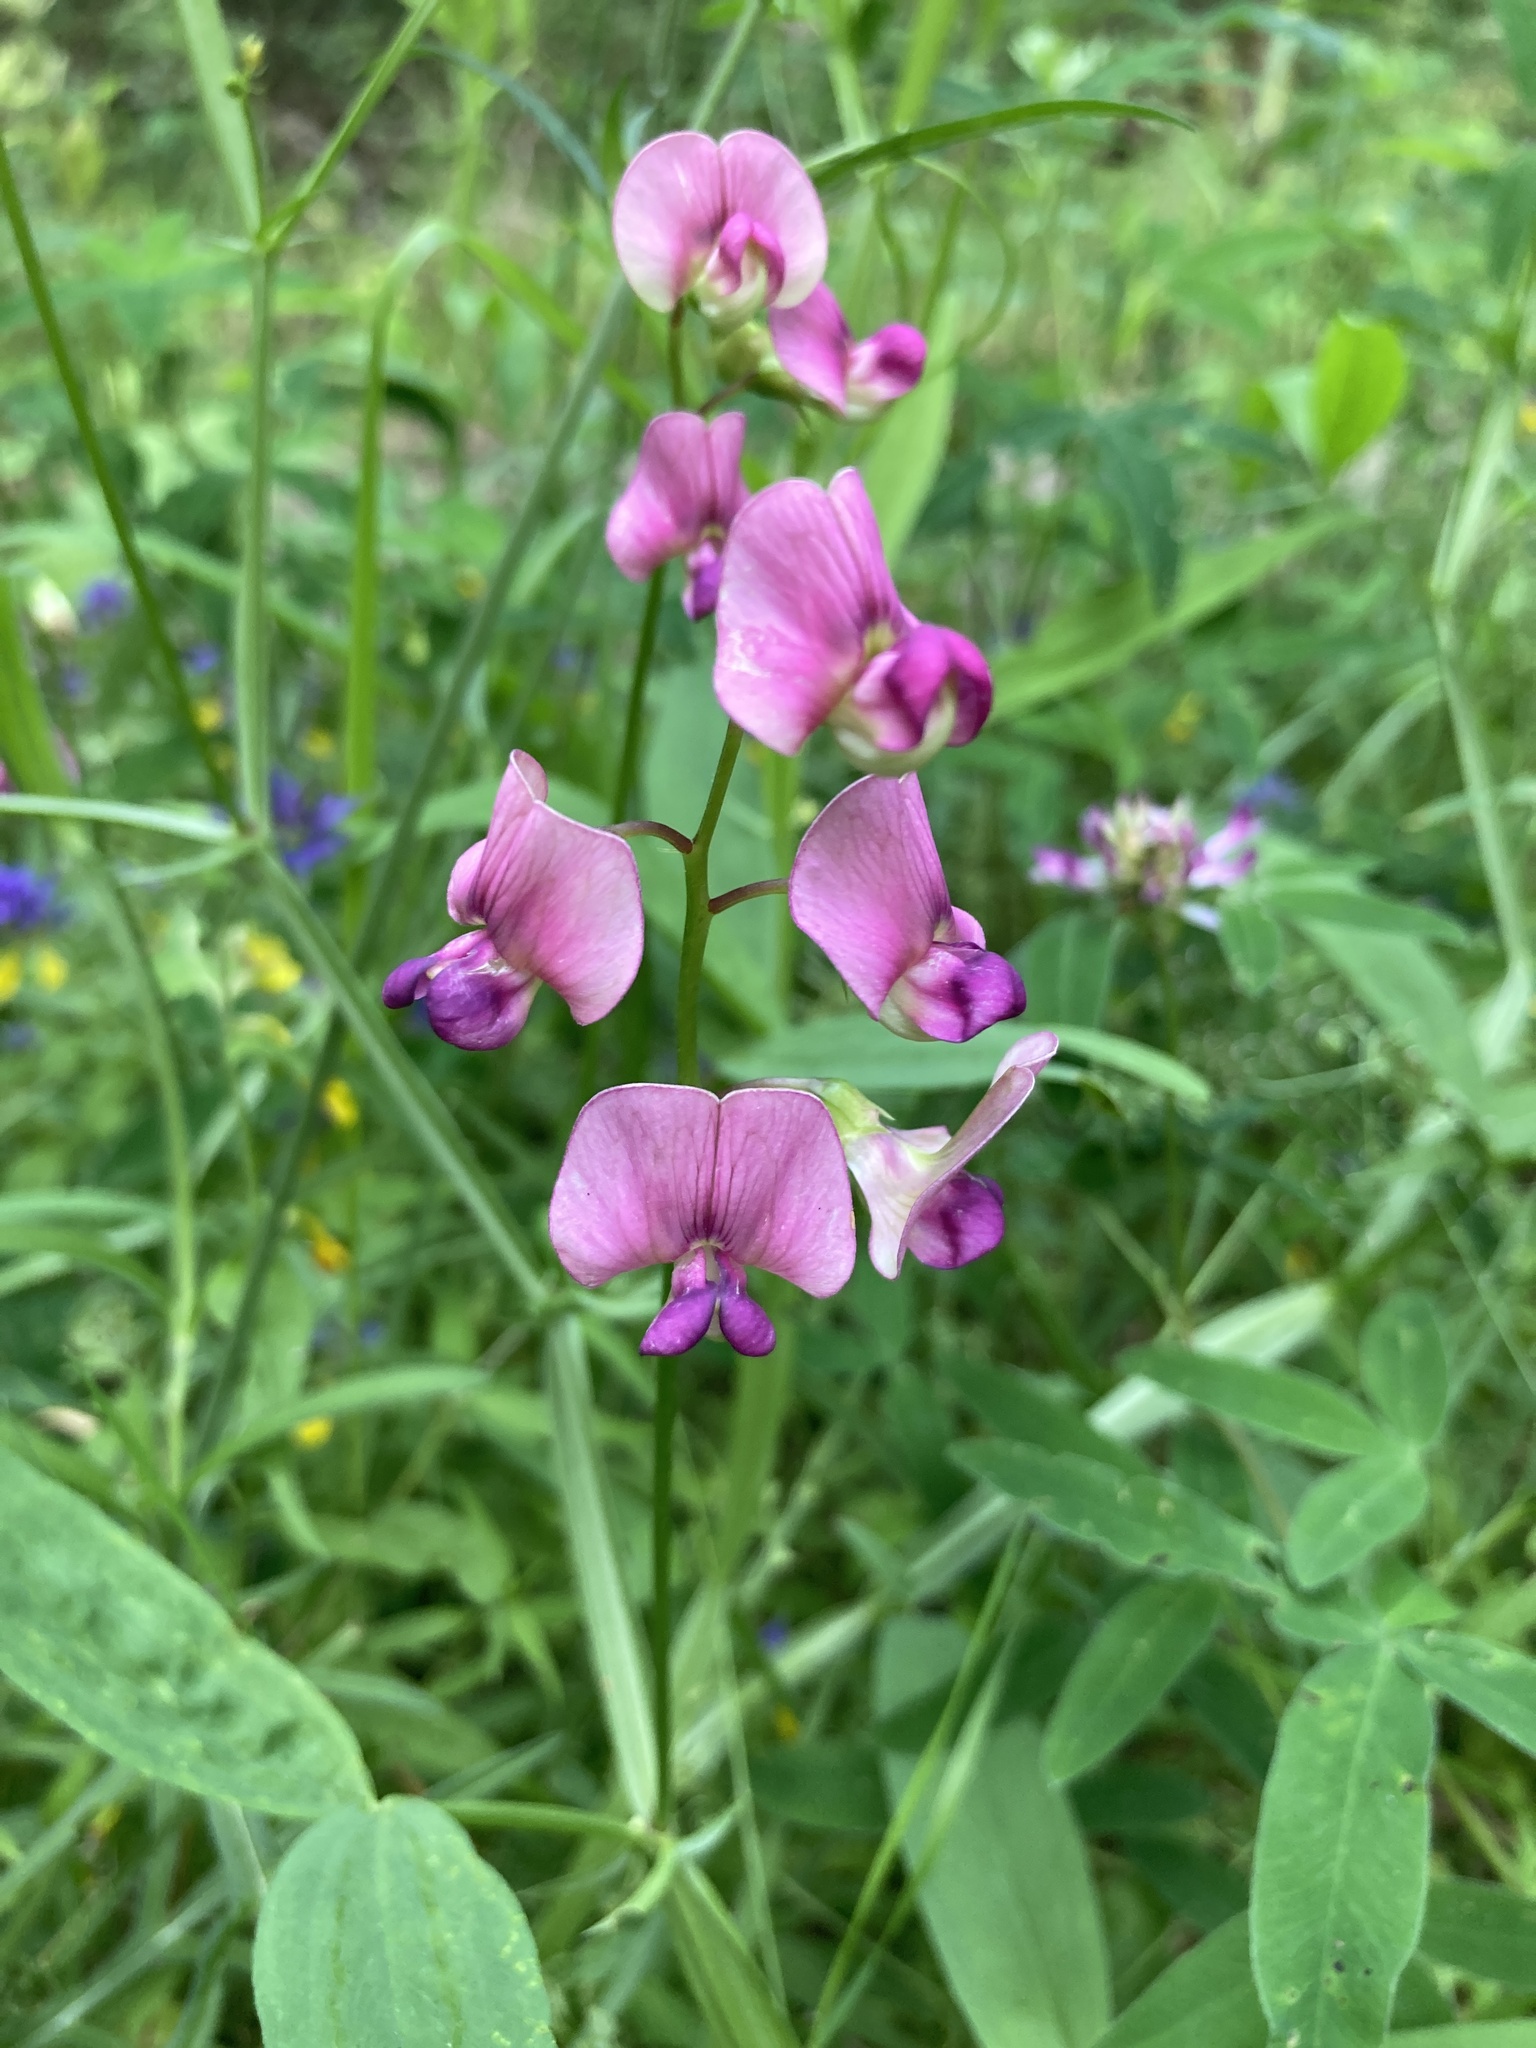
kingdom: Plantae
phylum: Tracheophyta
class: Magnoliopsida
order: Fabales
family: Fabaceae
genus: Lathyrus
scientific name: Lathyrus sylvestris
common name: Flat pea
